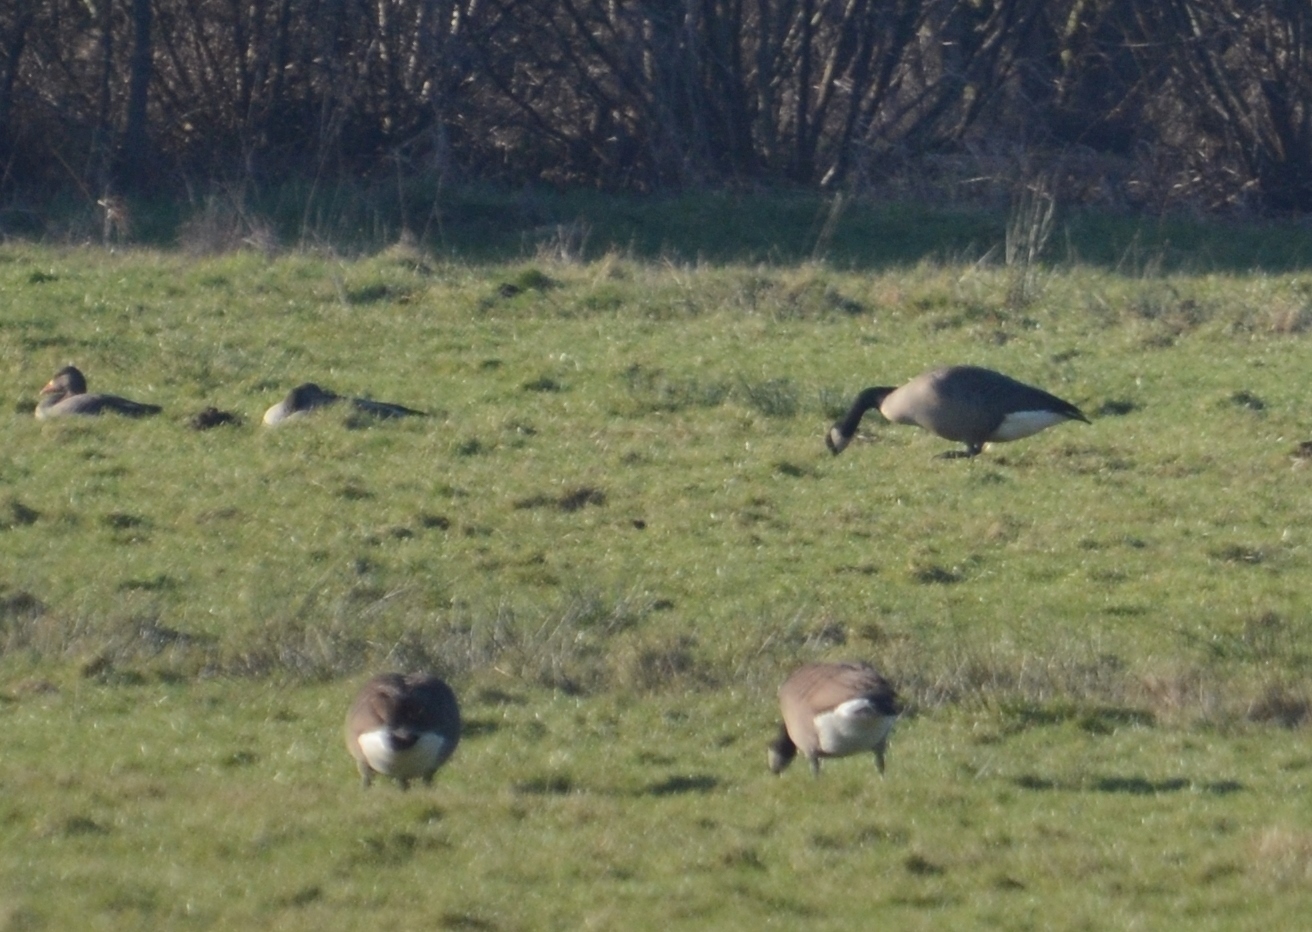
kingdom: Animalia
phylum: Chordata
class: Aves
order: Anseriformes
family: Anatidae
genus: Branta
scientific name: Branta canadensis
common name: Canada goose
